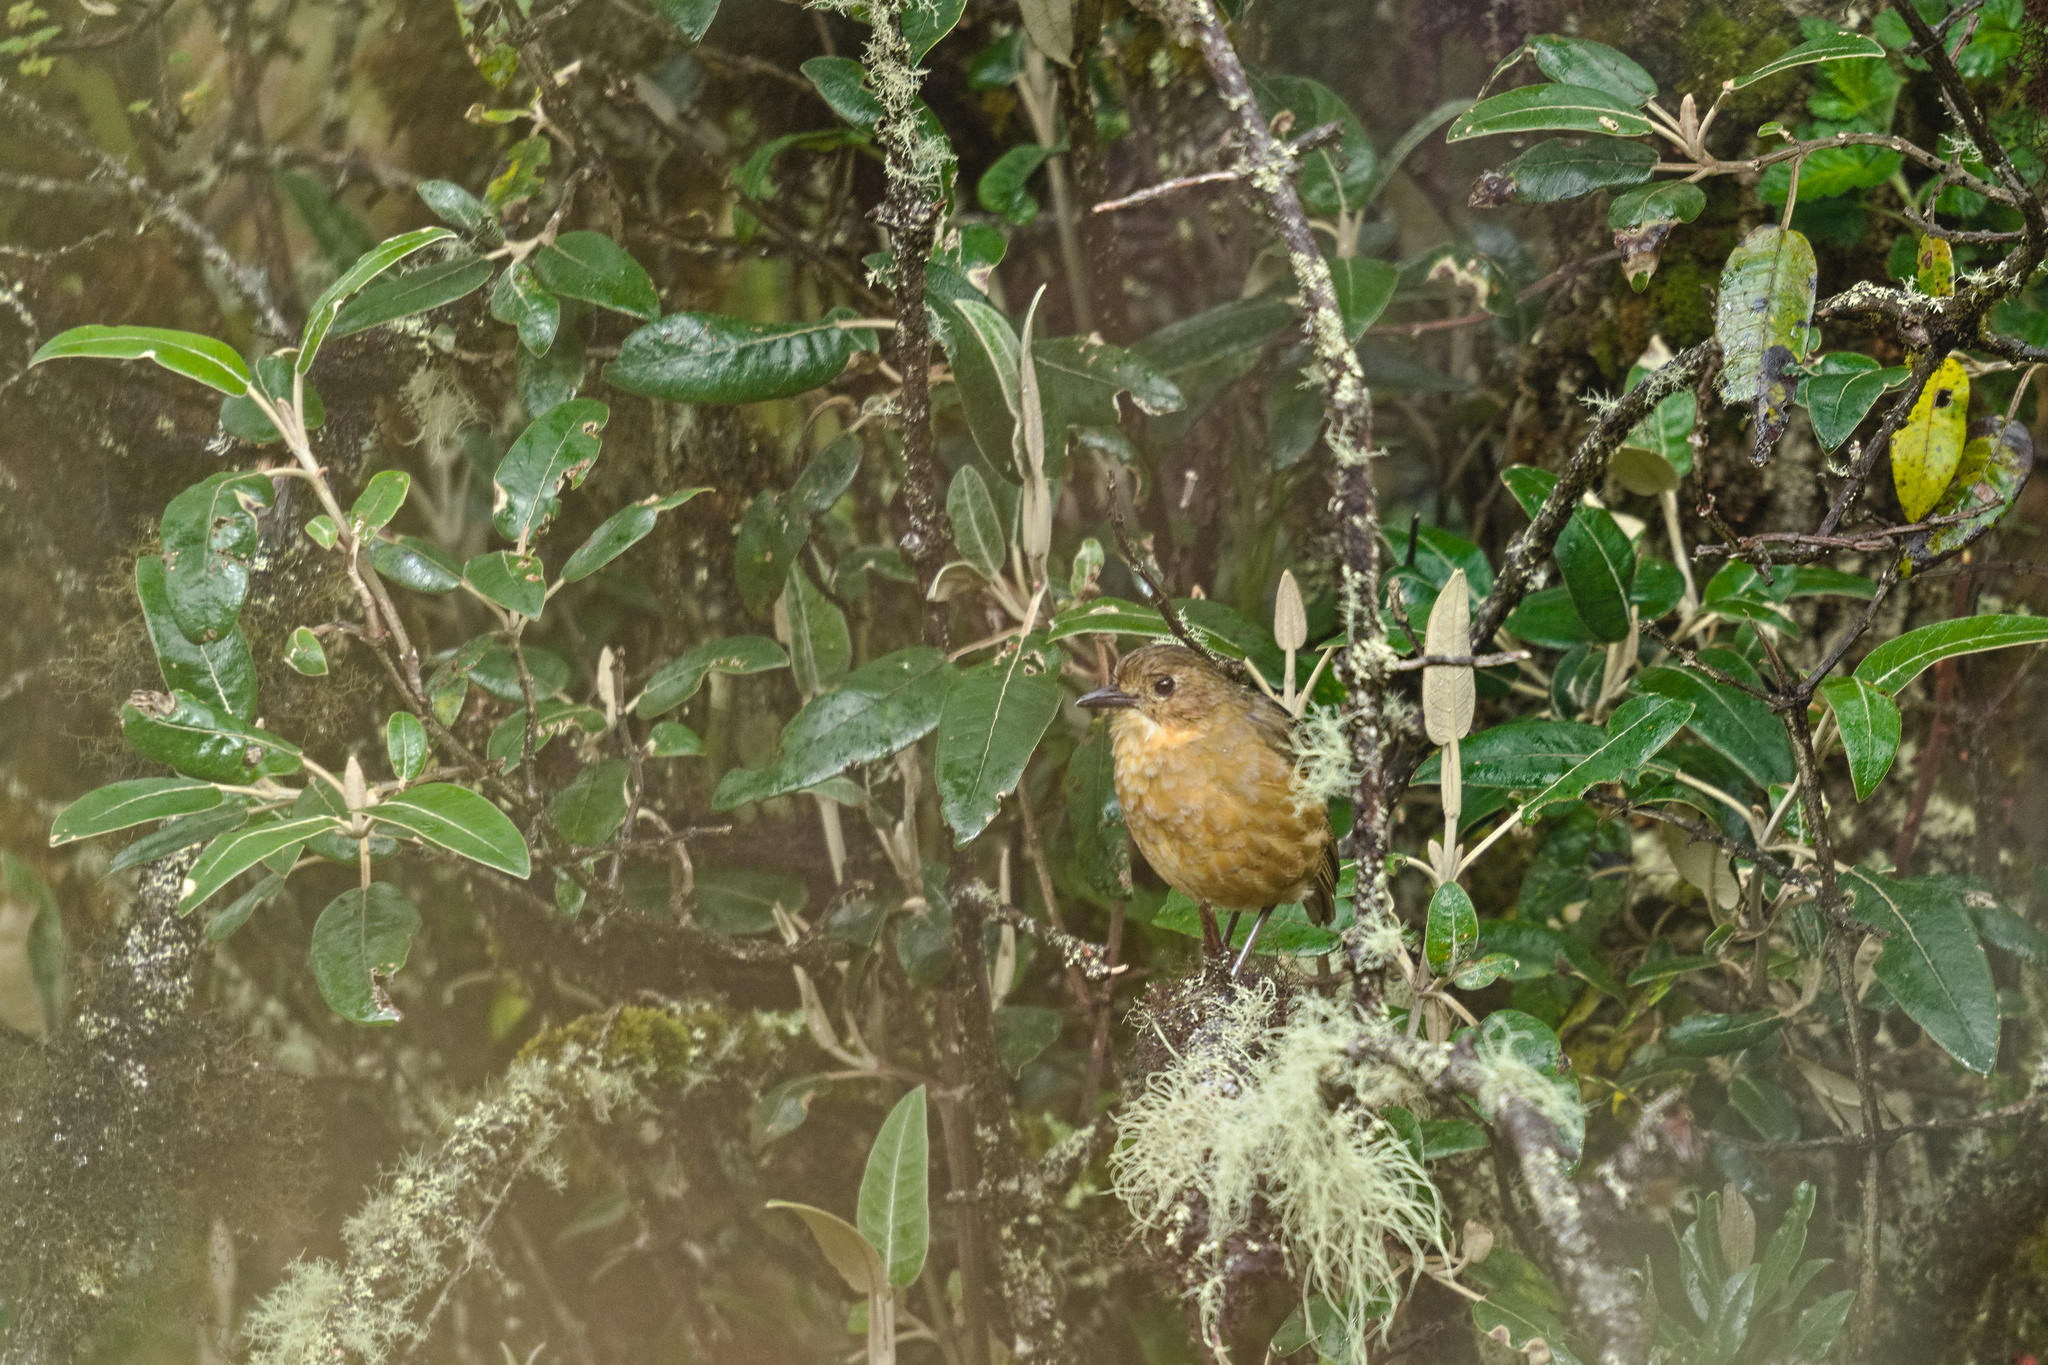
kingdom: Animalia
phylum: Chordata
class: Aves
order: Passeriformes
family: Grallariidae
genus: Grallaria
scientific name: Grallaria quitensis
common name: Tawny antpitta
